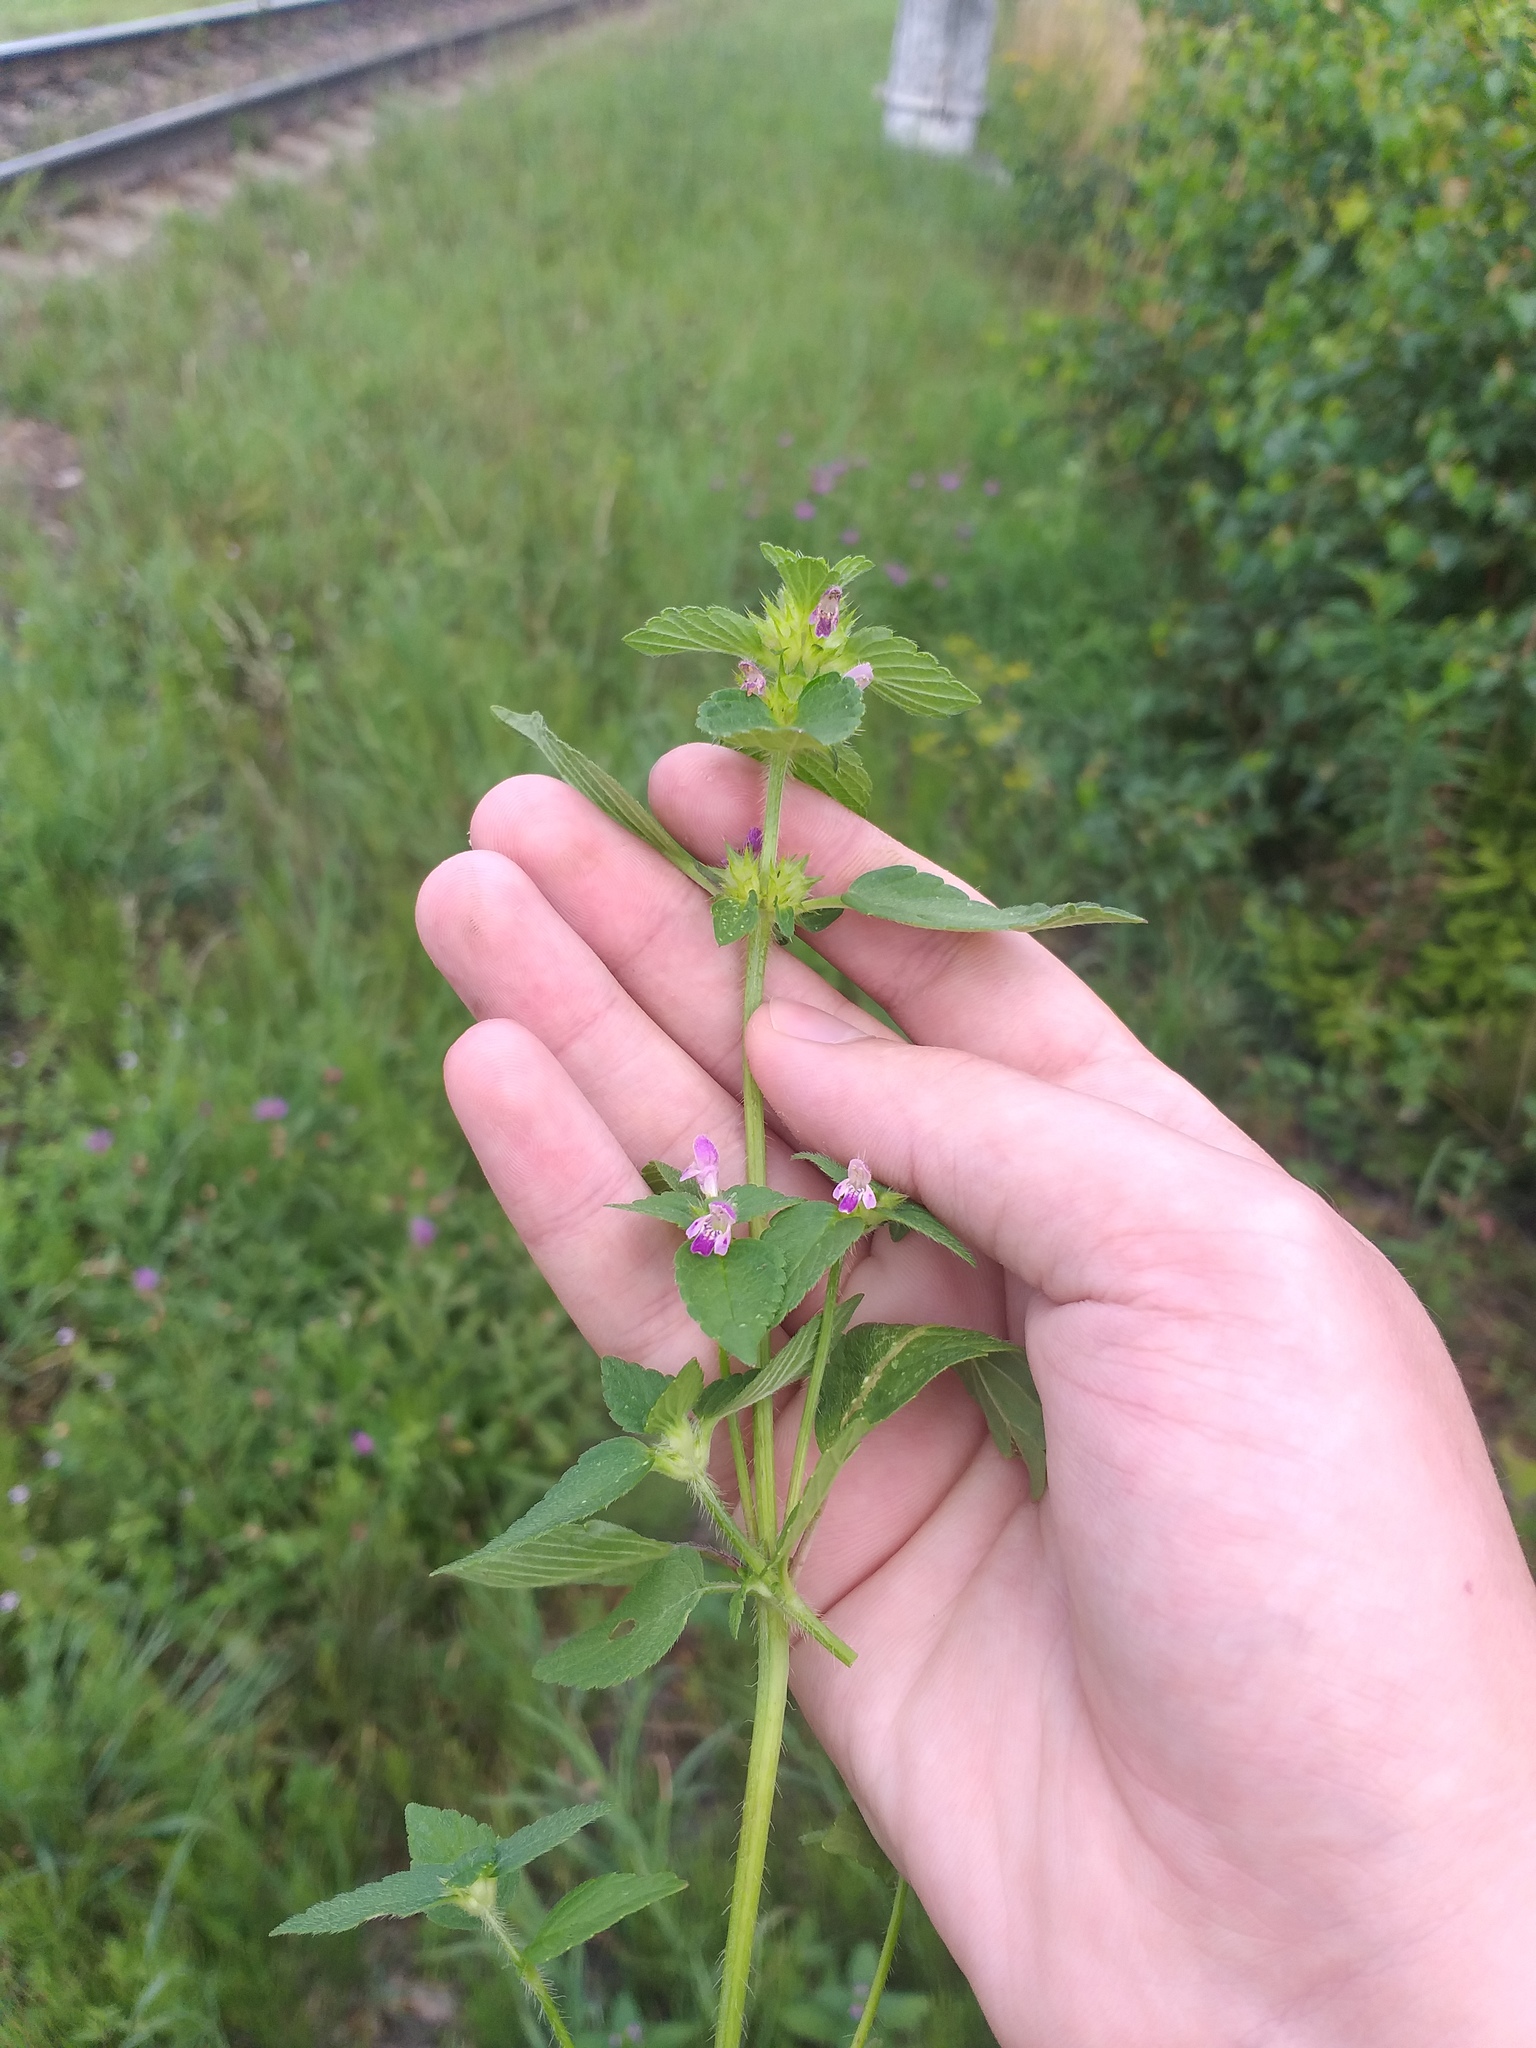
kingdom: Plantae
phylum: Tracheophyta
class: Magnoliopsida
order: Lamiales
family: Lamiaceae
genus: Galeopsis
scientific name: Galeopsis bifida
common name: Bifid hemp-nettle
